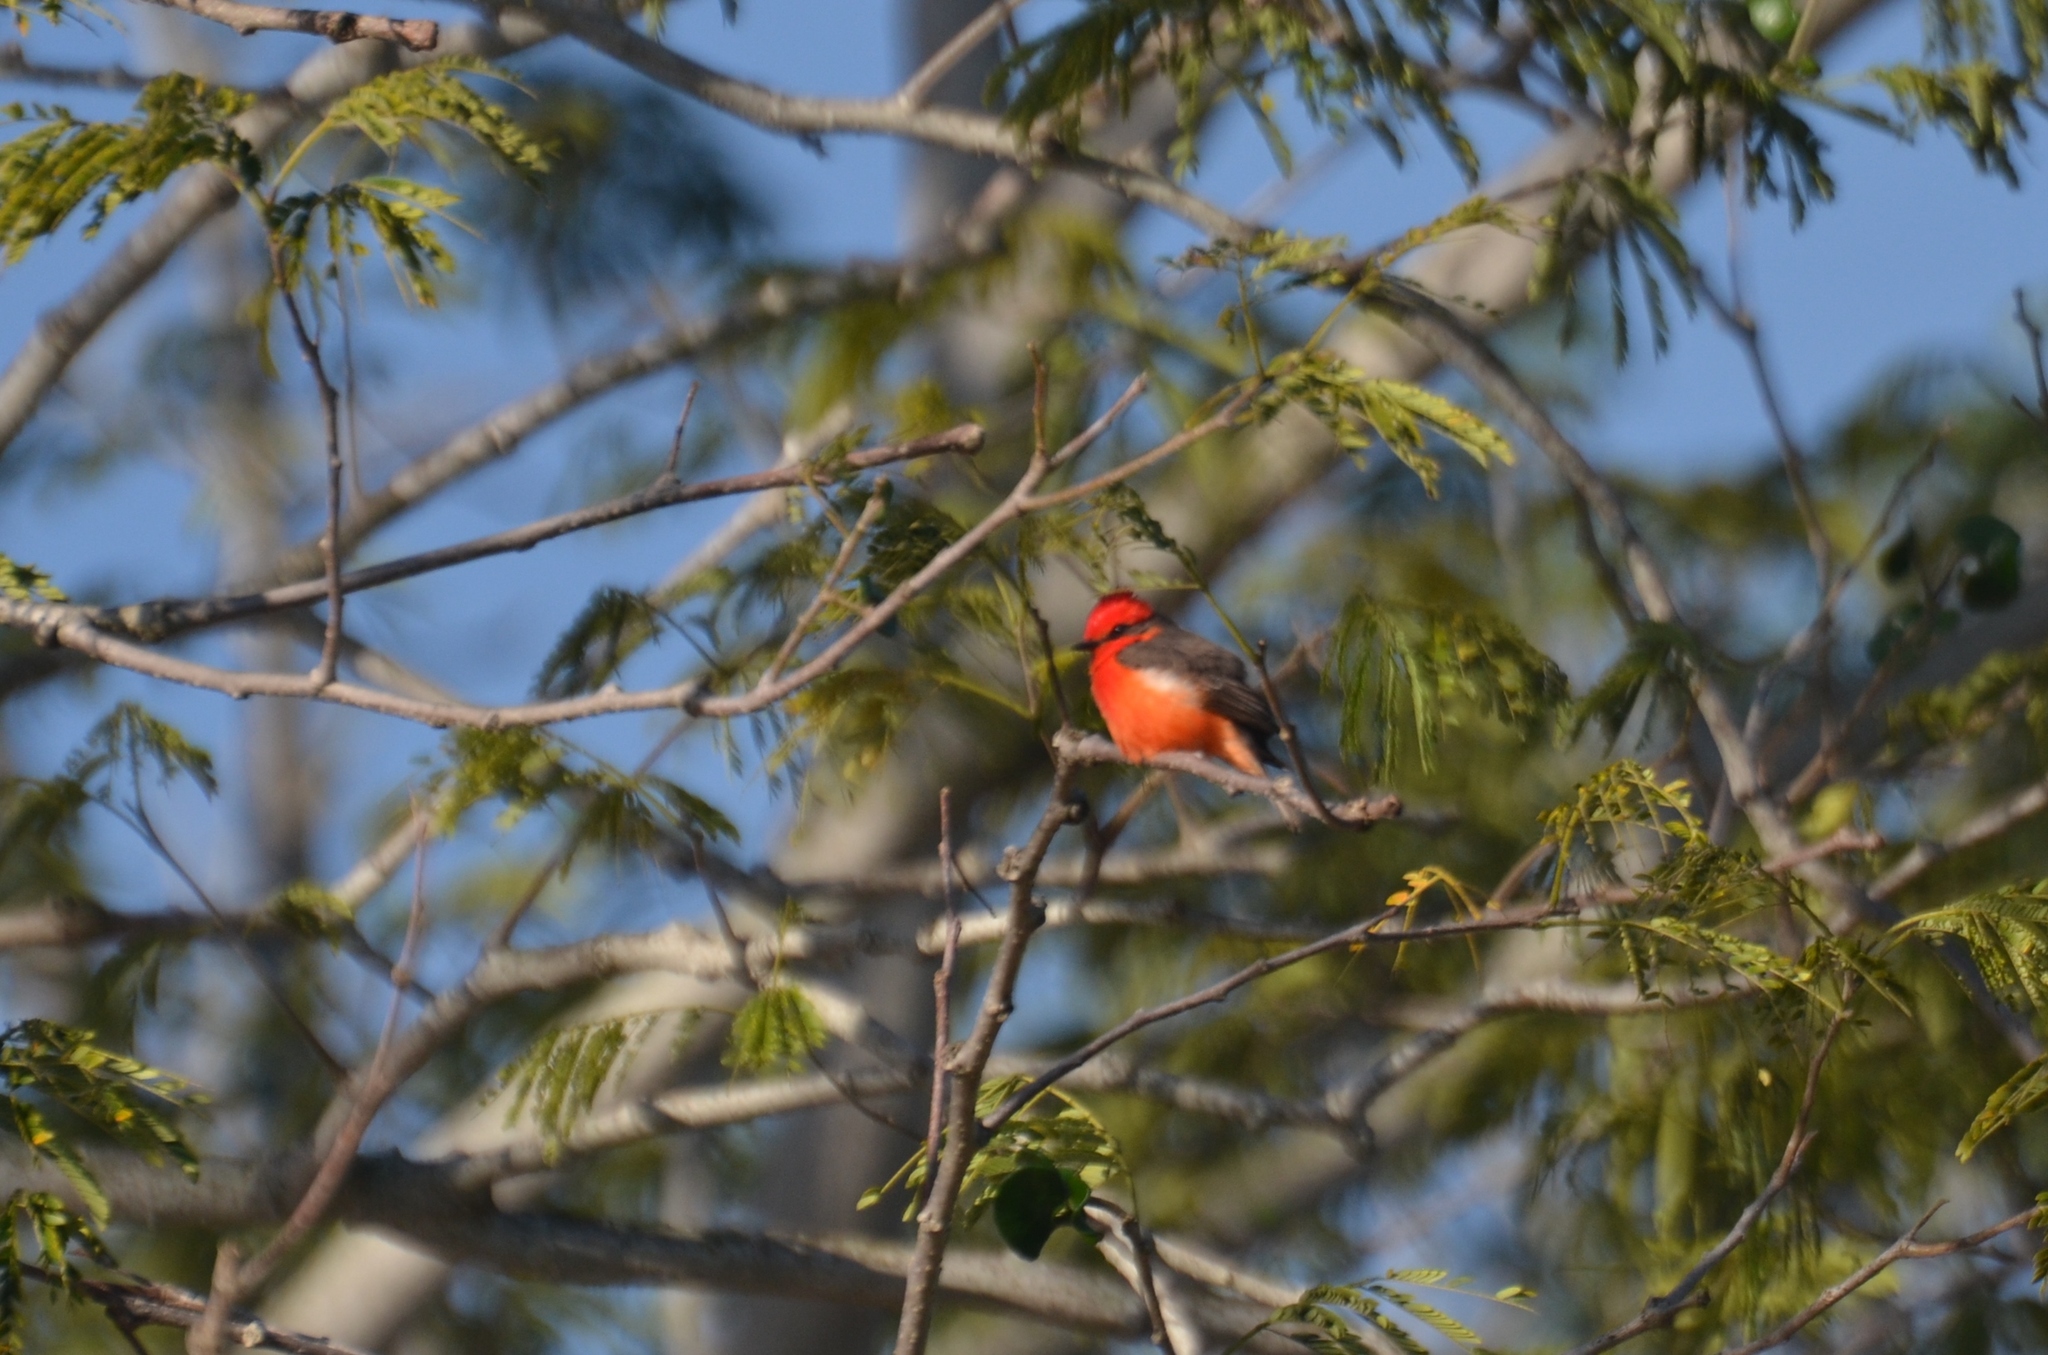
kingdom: Animalia
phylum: Chordata
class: Aves
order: Passeriformes
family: Tyrannidae
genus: Pyrocephalus
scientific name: Pyrocephalus rubinus
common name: Vermilion flycatcher
